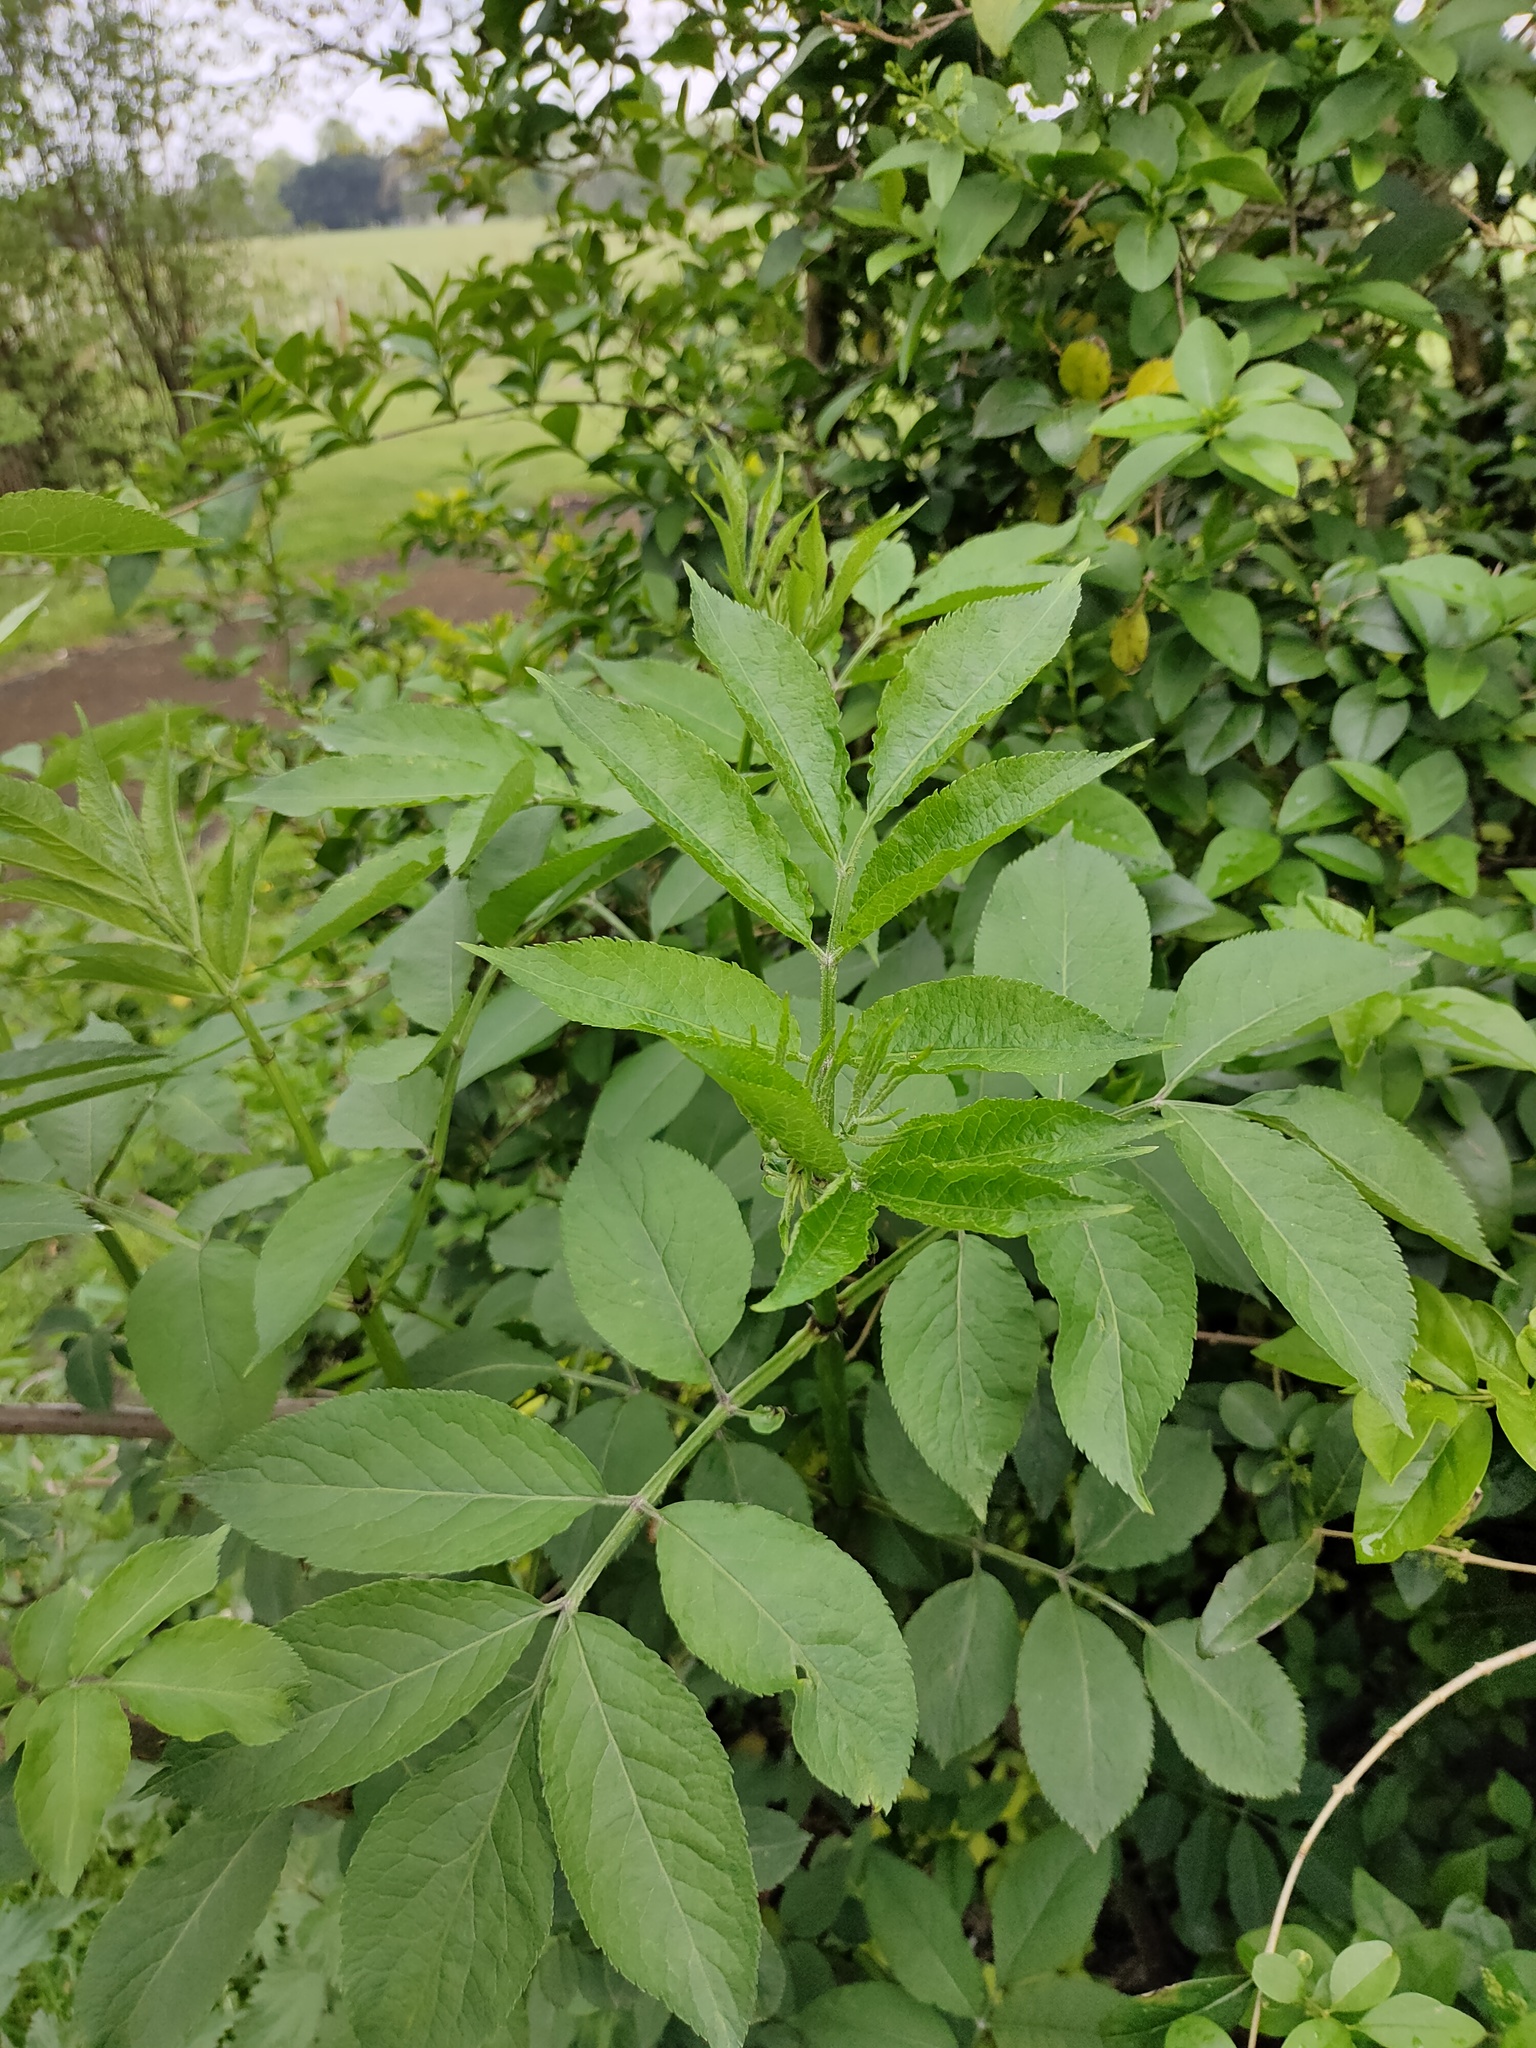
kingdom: Plantae
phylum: Tracheophyta
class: Magnoliopsida
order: Dipsacales
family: Viburnaceae
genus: Sambucus
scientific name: Sambucus nigra
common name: Elder
